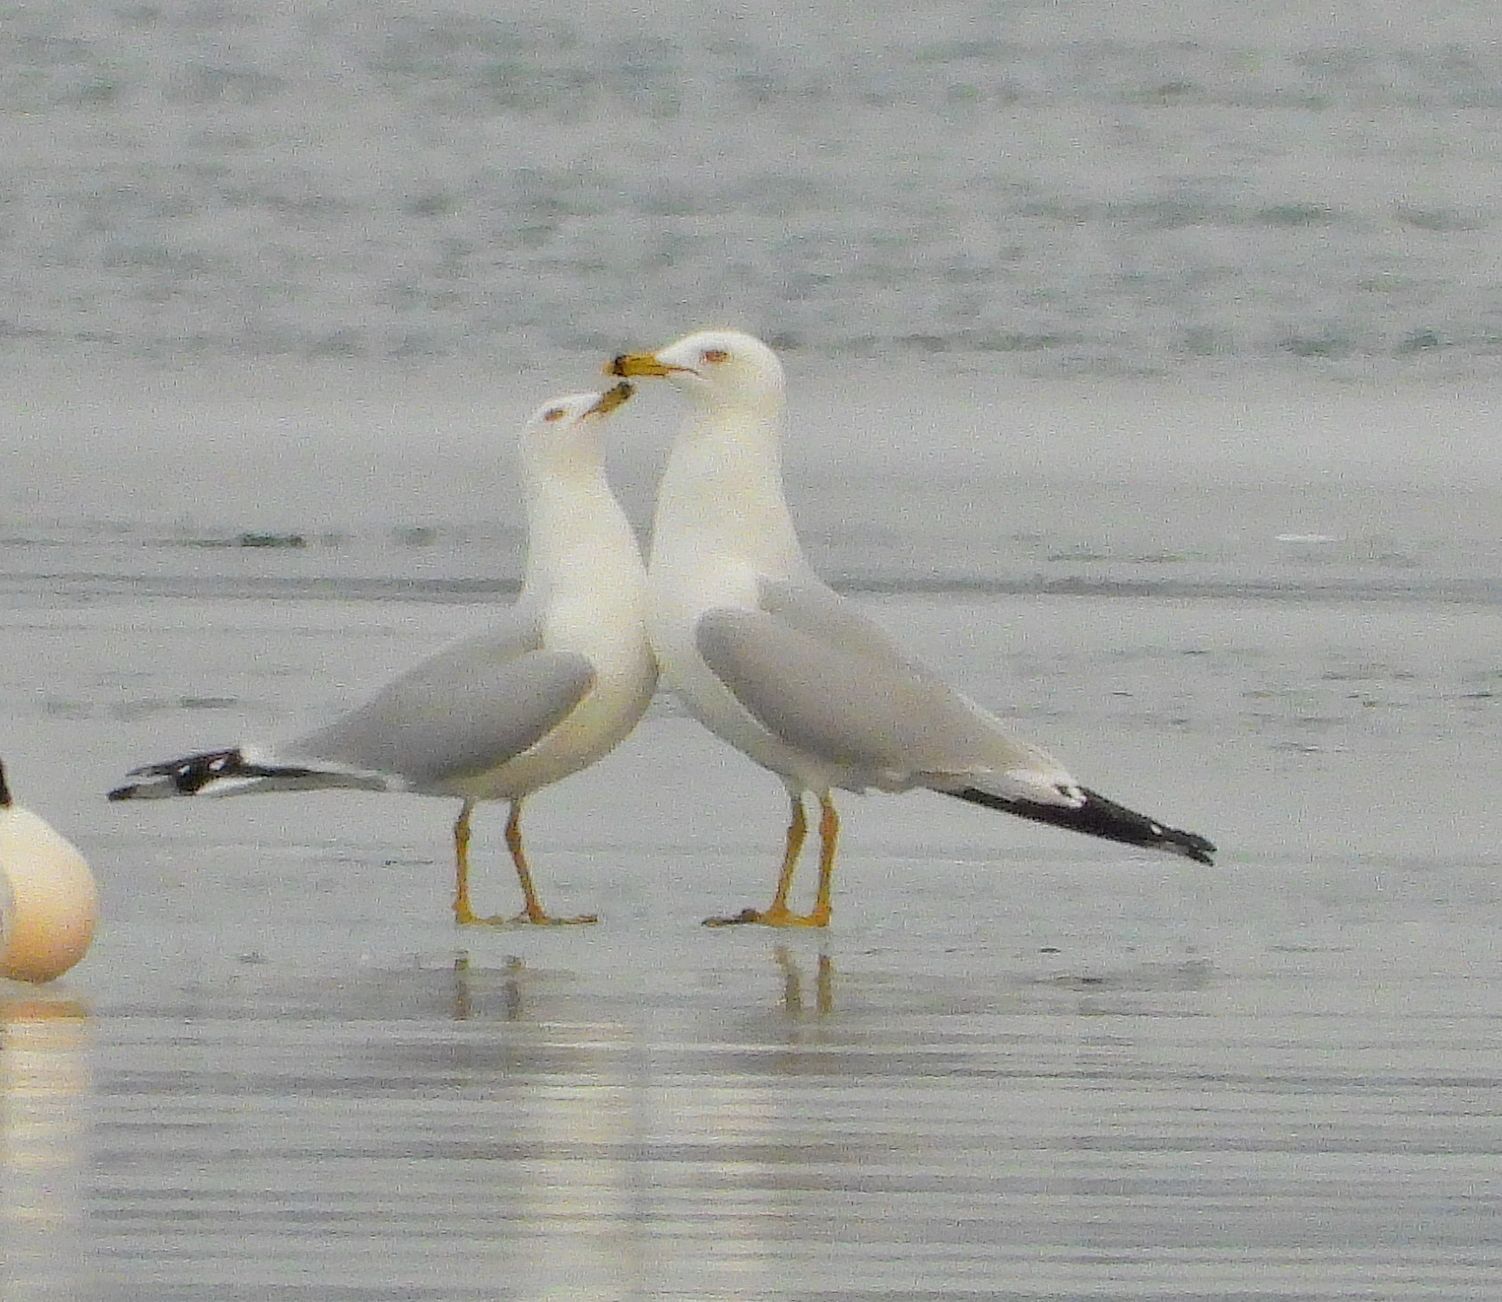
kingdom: Animalia
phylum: Chordata
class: Aves
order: Charadriiformes
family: Laridae
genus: Larus
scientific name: Larus delawarensis
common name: Ring-billed gull
